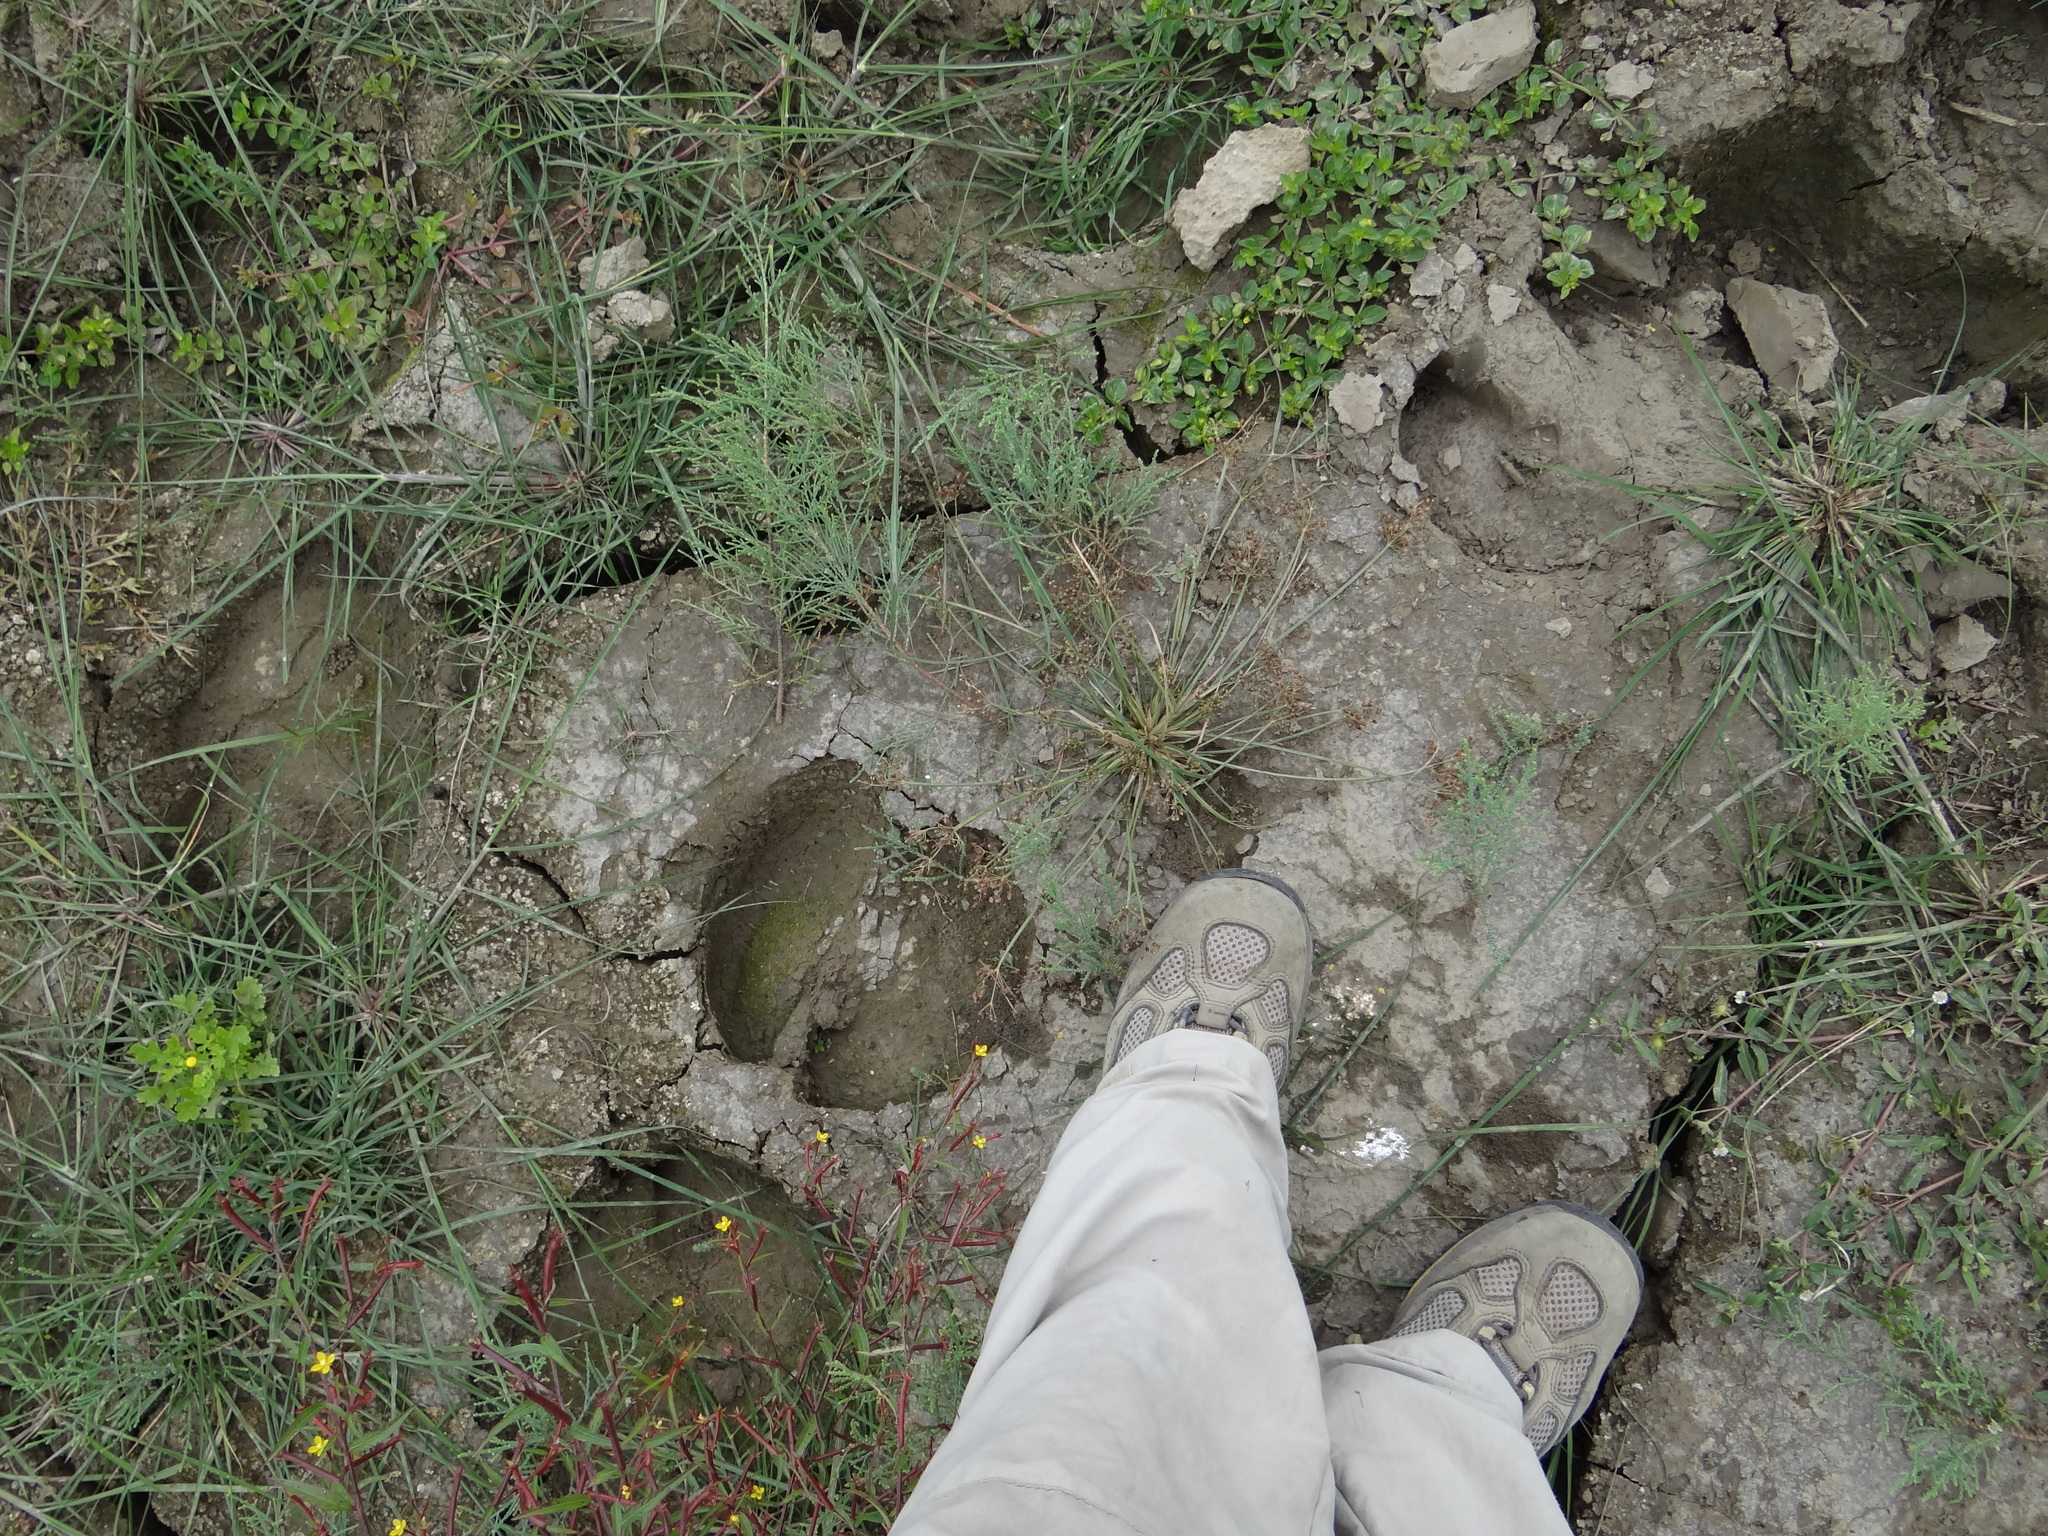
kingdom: Animalia
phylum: Chordata
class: Mammalia
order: Artiodactyla
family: Bovidae
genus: Bubalus
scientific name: Bubalus bubalis
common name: Water buffalo
